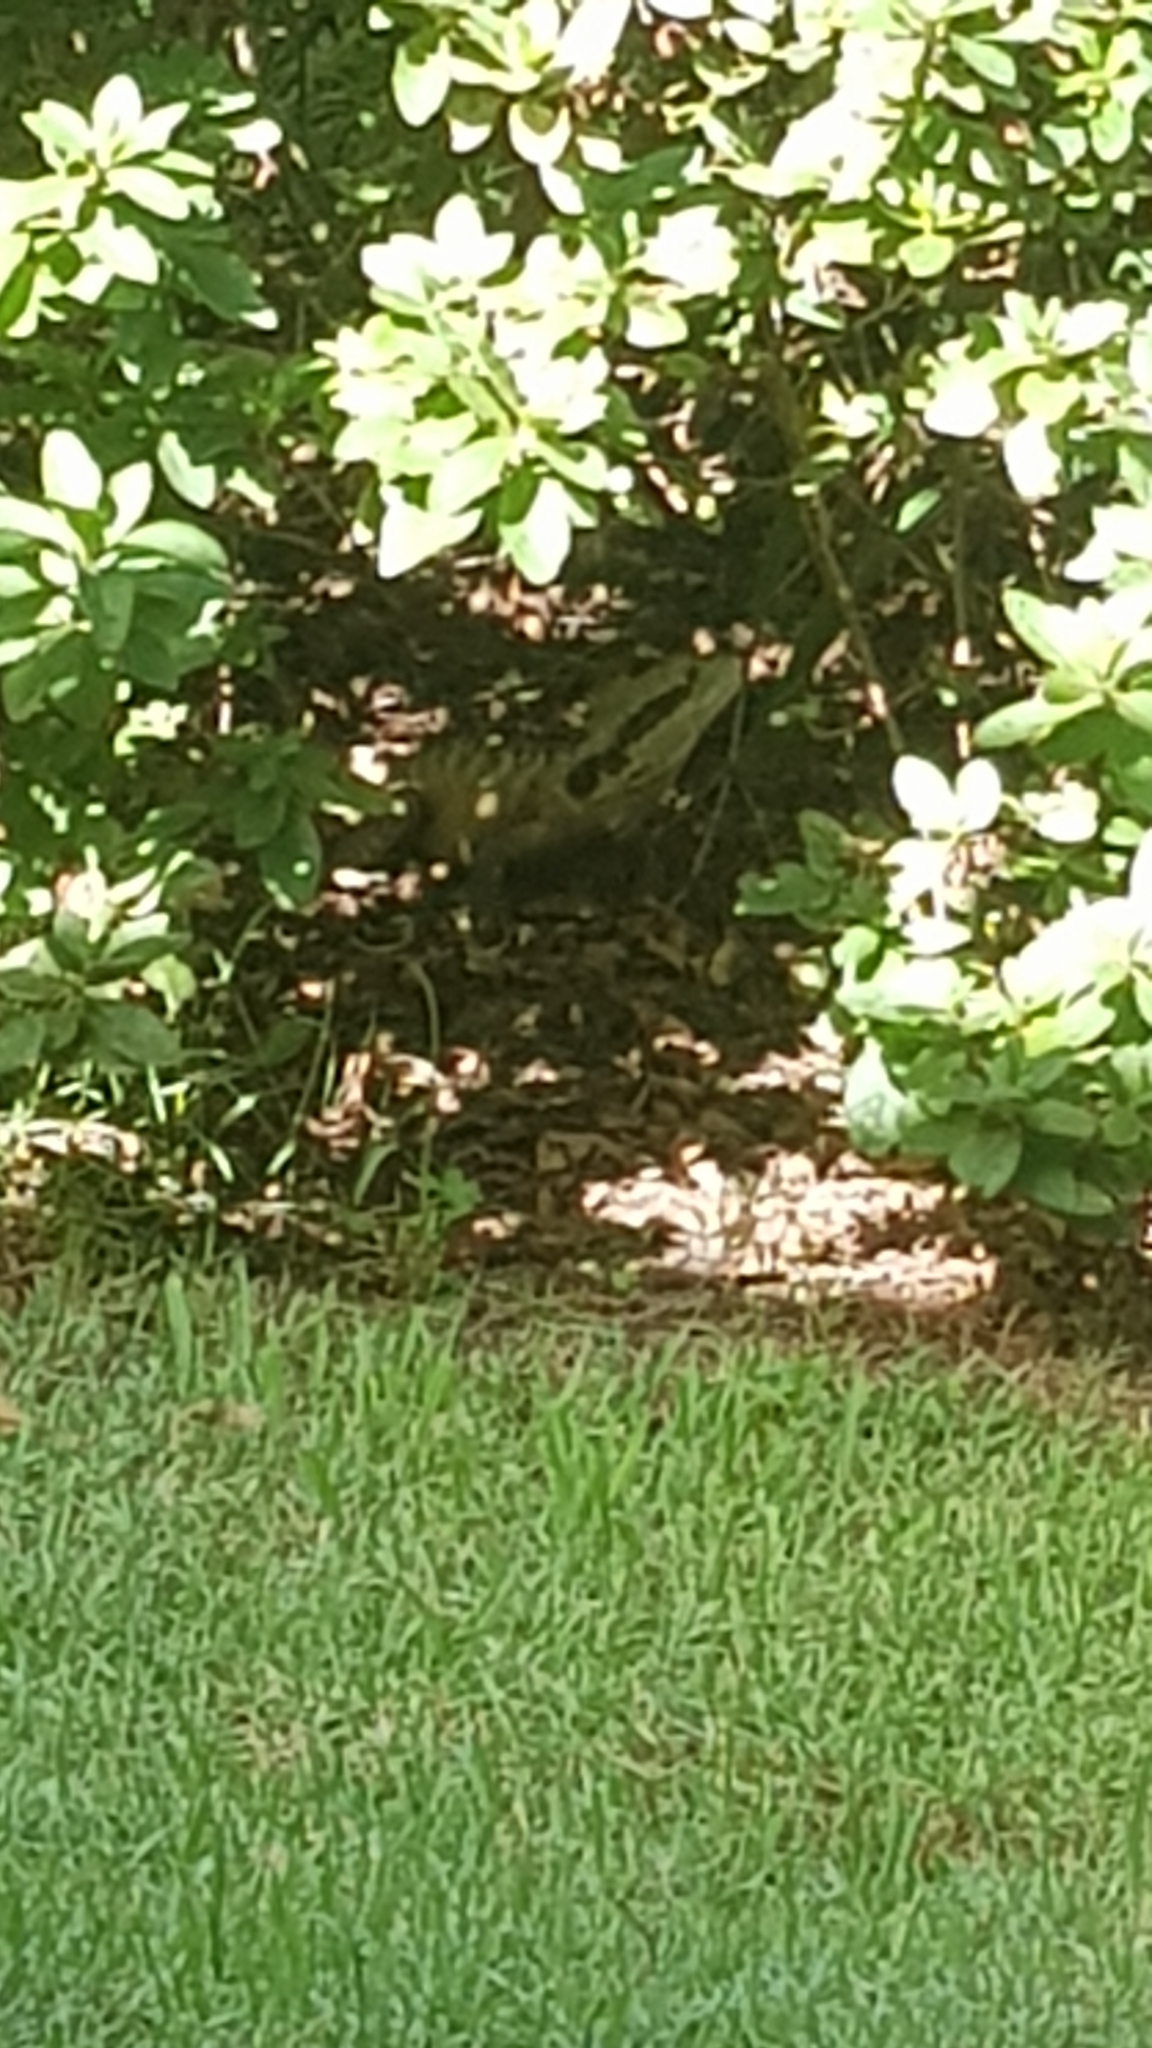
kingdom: Animalia
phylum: Chordata
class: Squamata
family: Agamidae
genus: Intellagama
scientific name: Intellagama lesueurii
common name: Eastern water dragon
